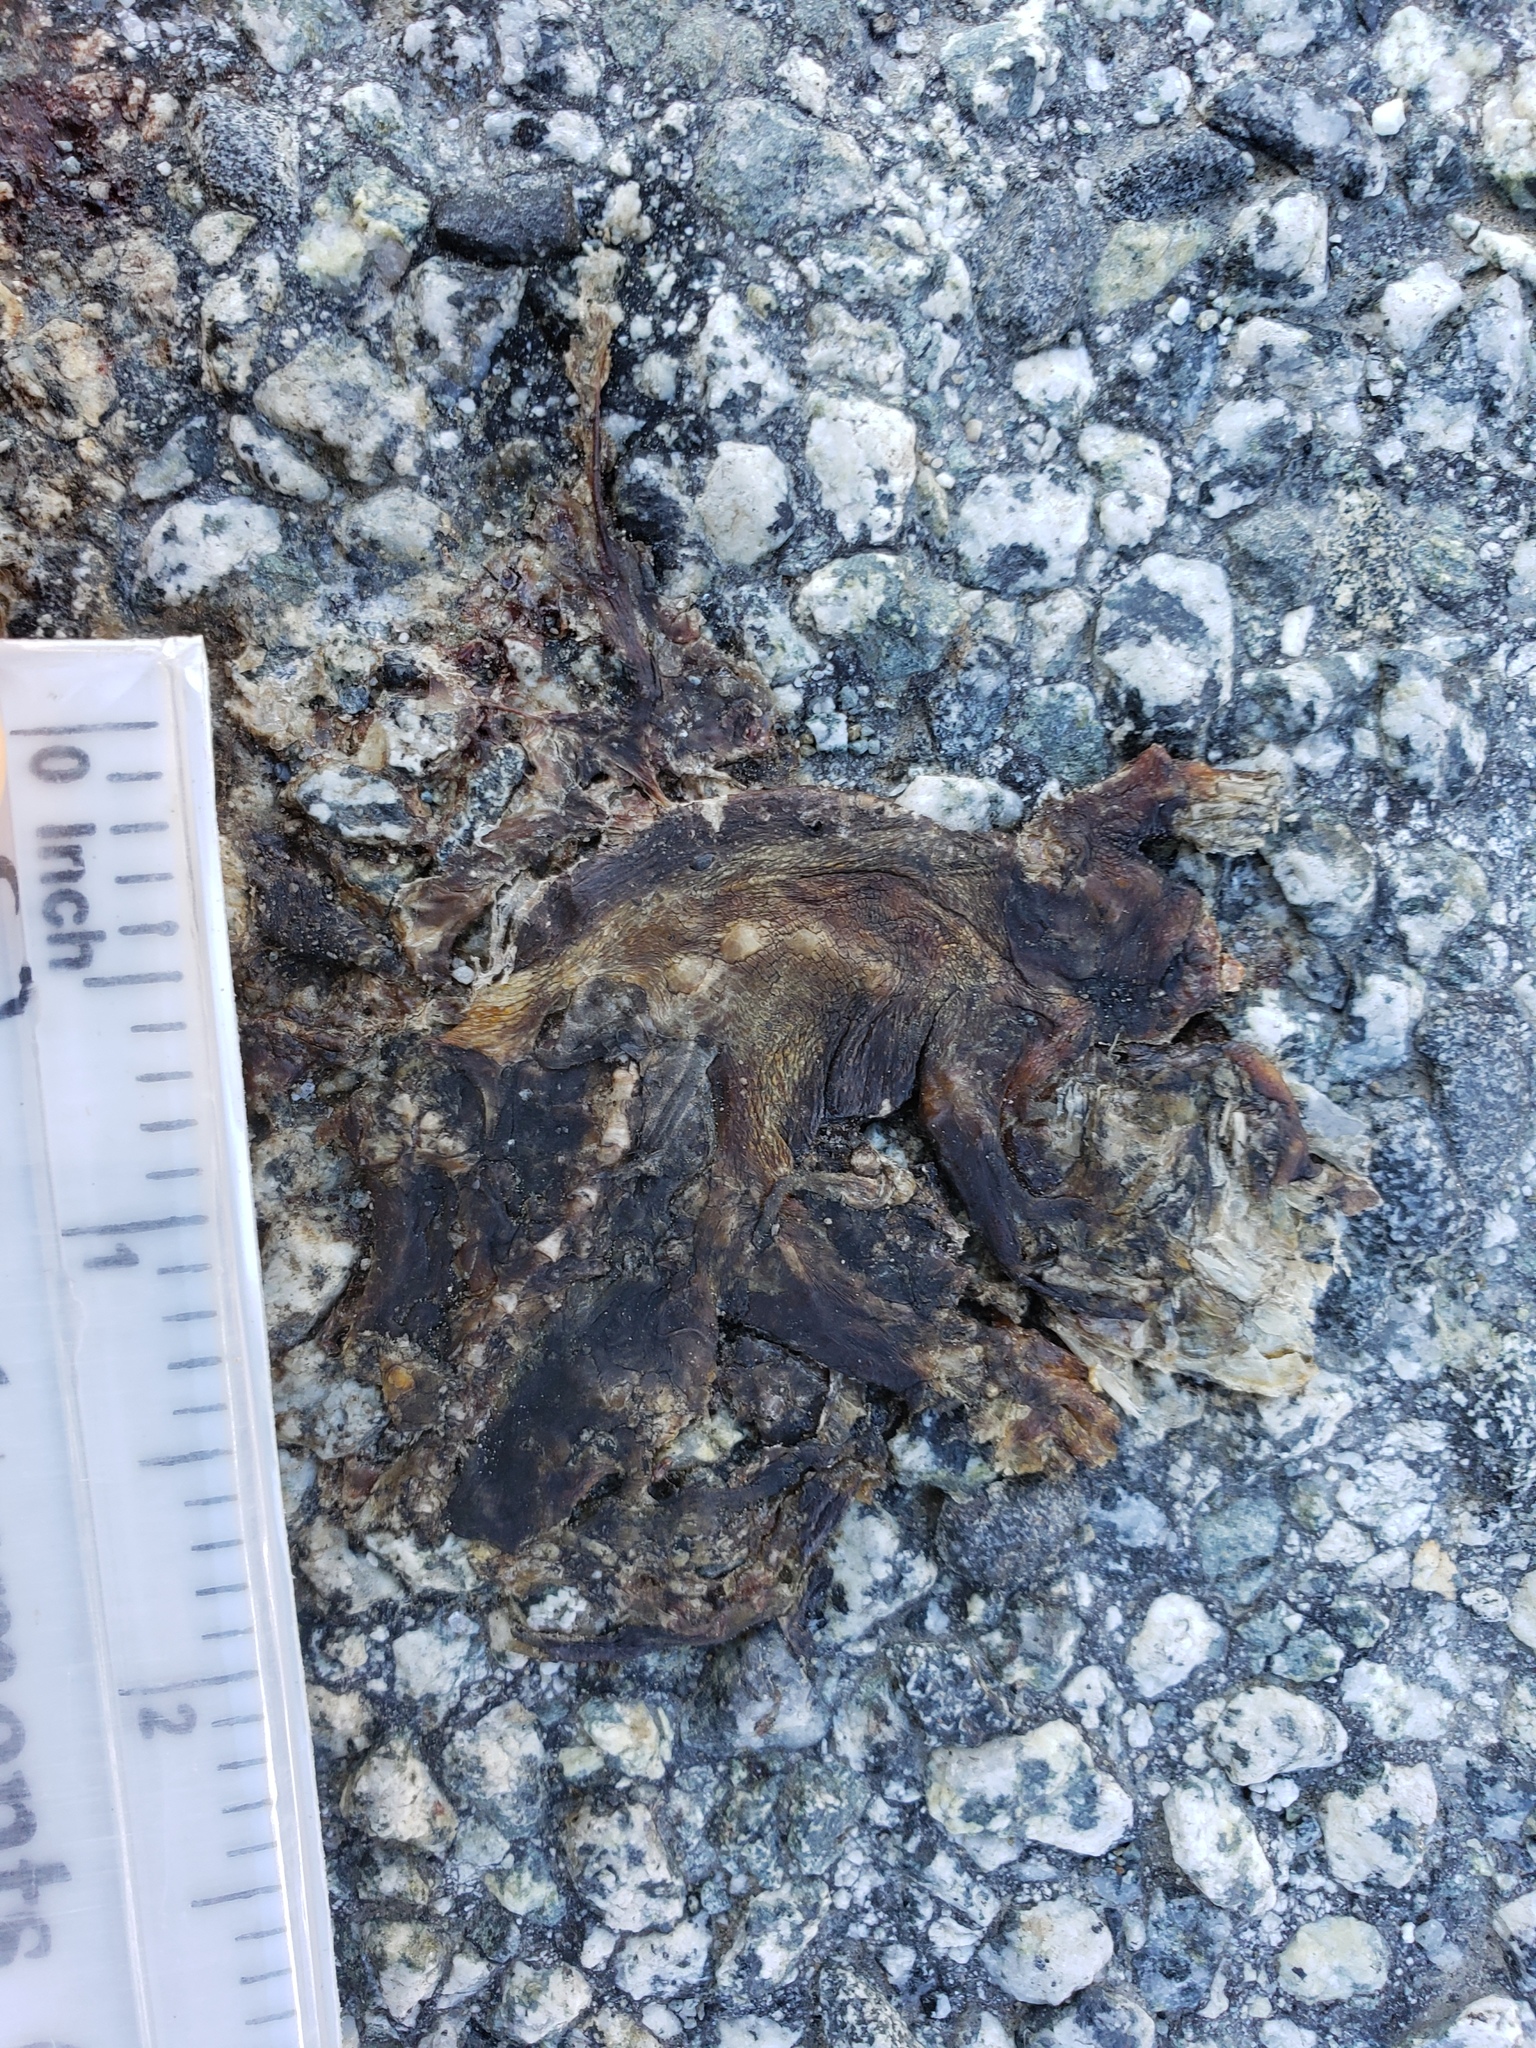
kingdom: Animalia
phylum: Chordata
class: Amphibia
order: Caudata
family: Salamandridae
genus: Taricha
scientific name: Taricha
